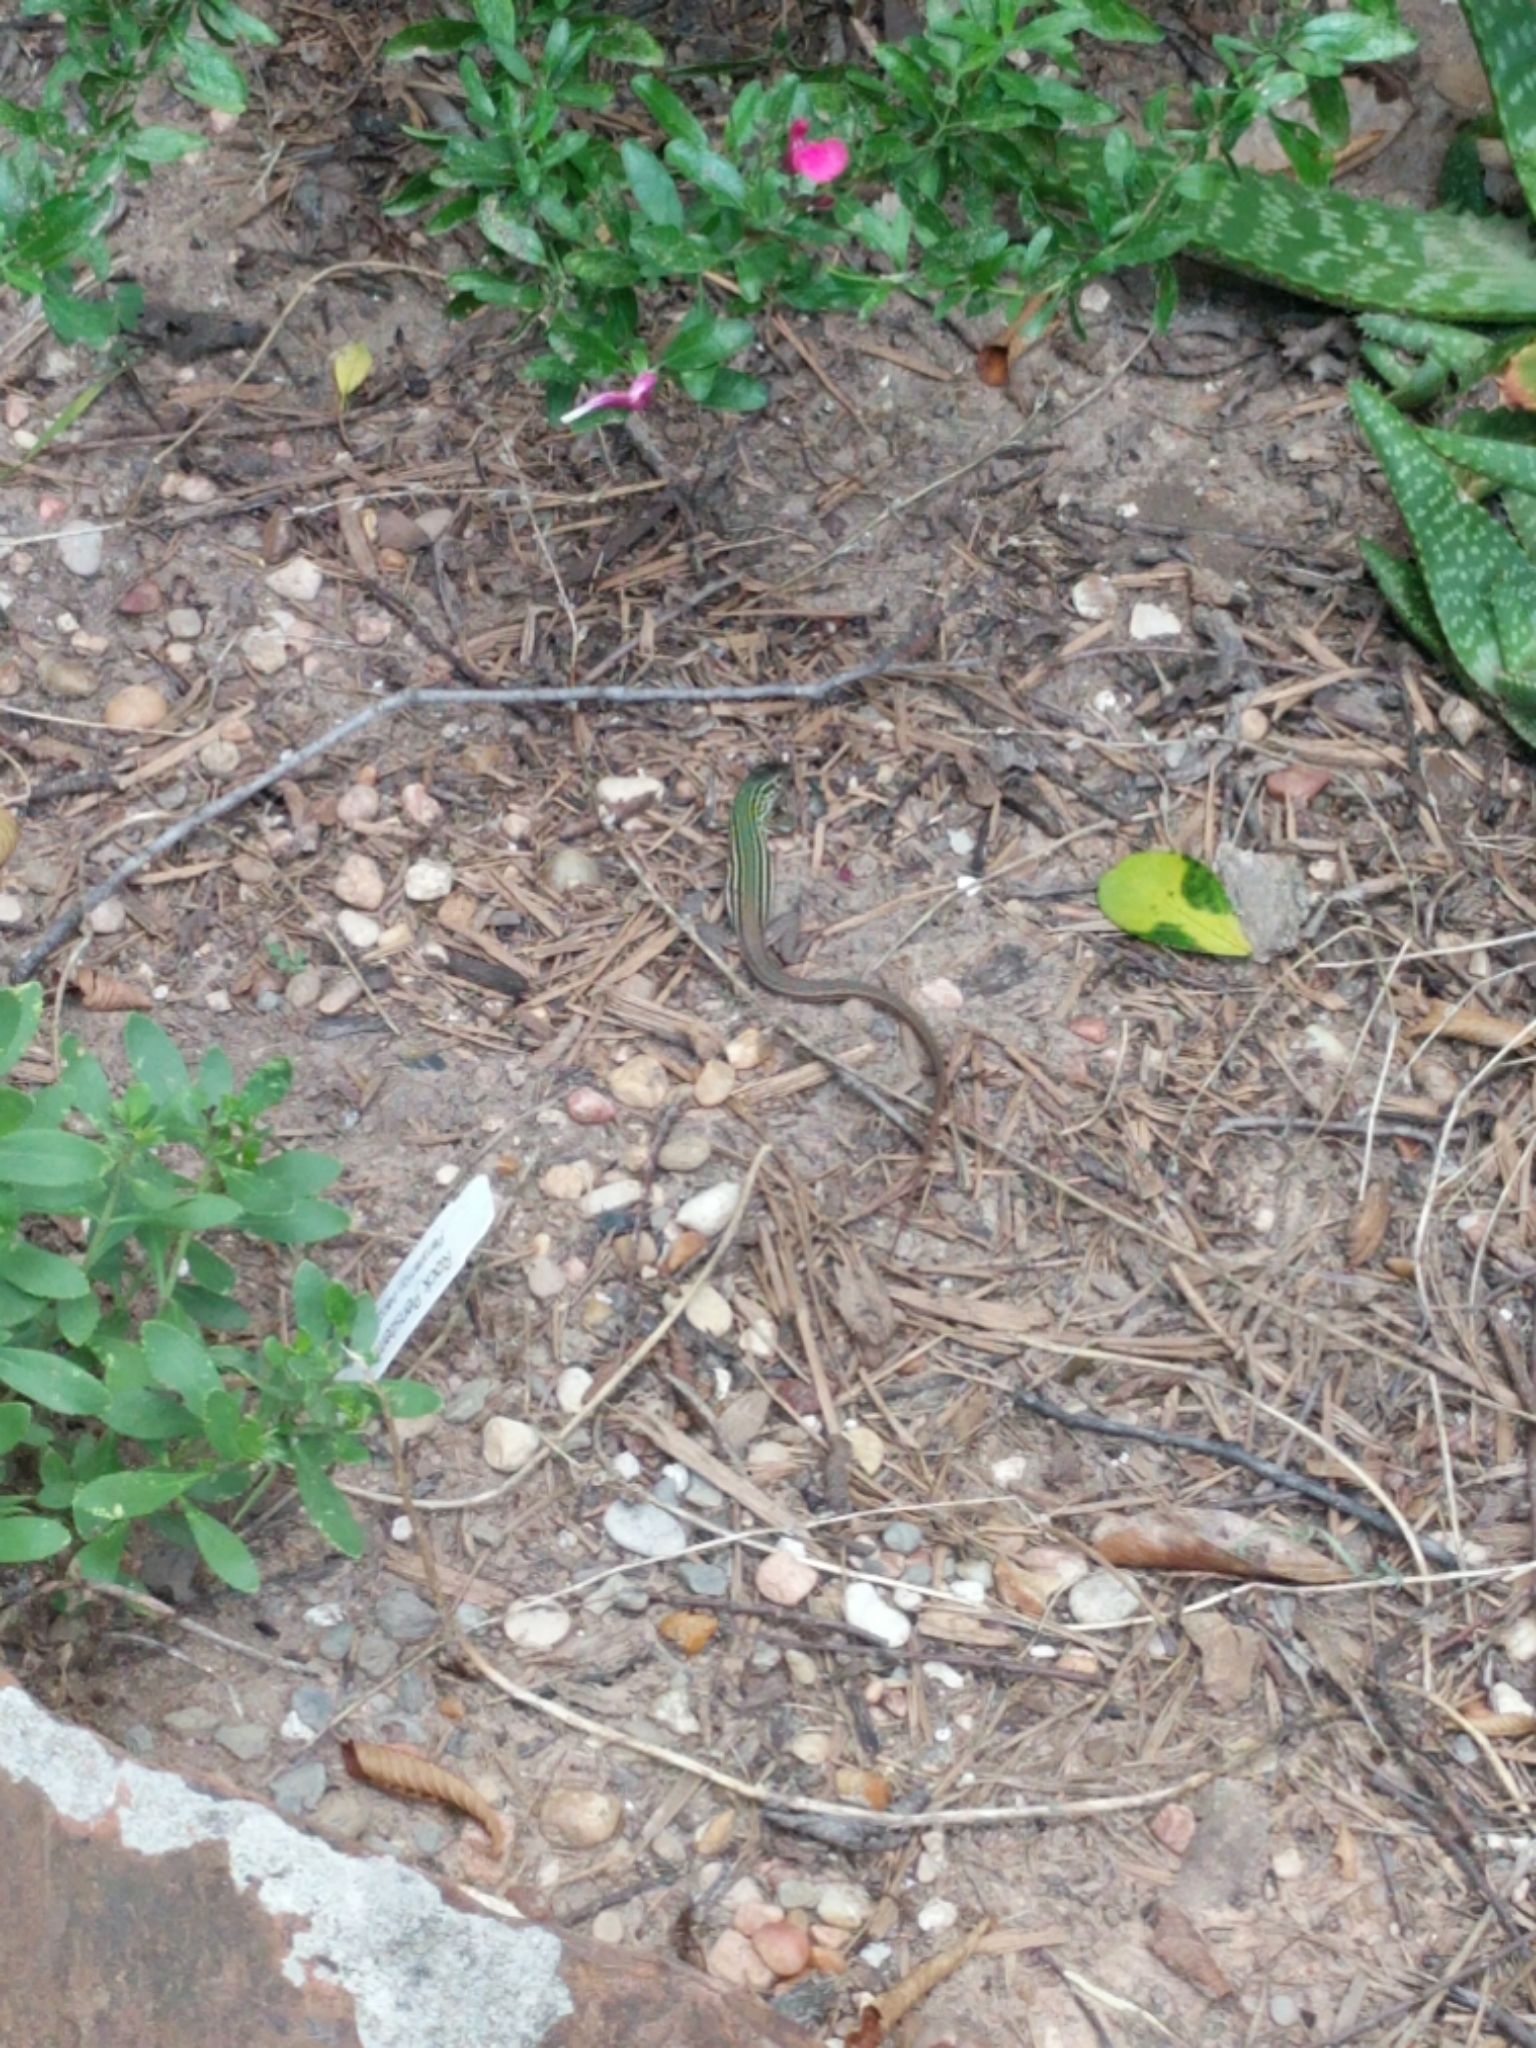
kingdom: Animalia
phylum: Chordata
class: Squamata
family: Teiidae
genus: Aspidoscelis
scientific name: Aspidoscelis gularis
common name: Eastern spotted whiptail
